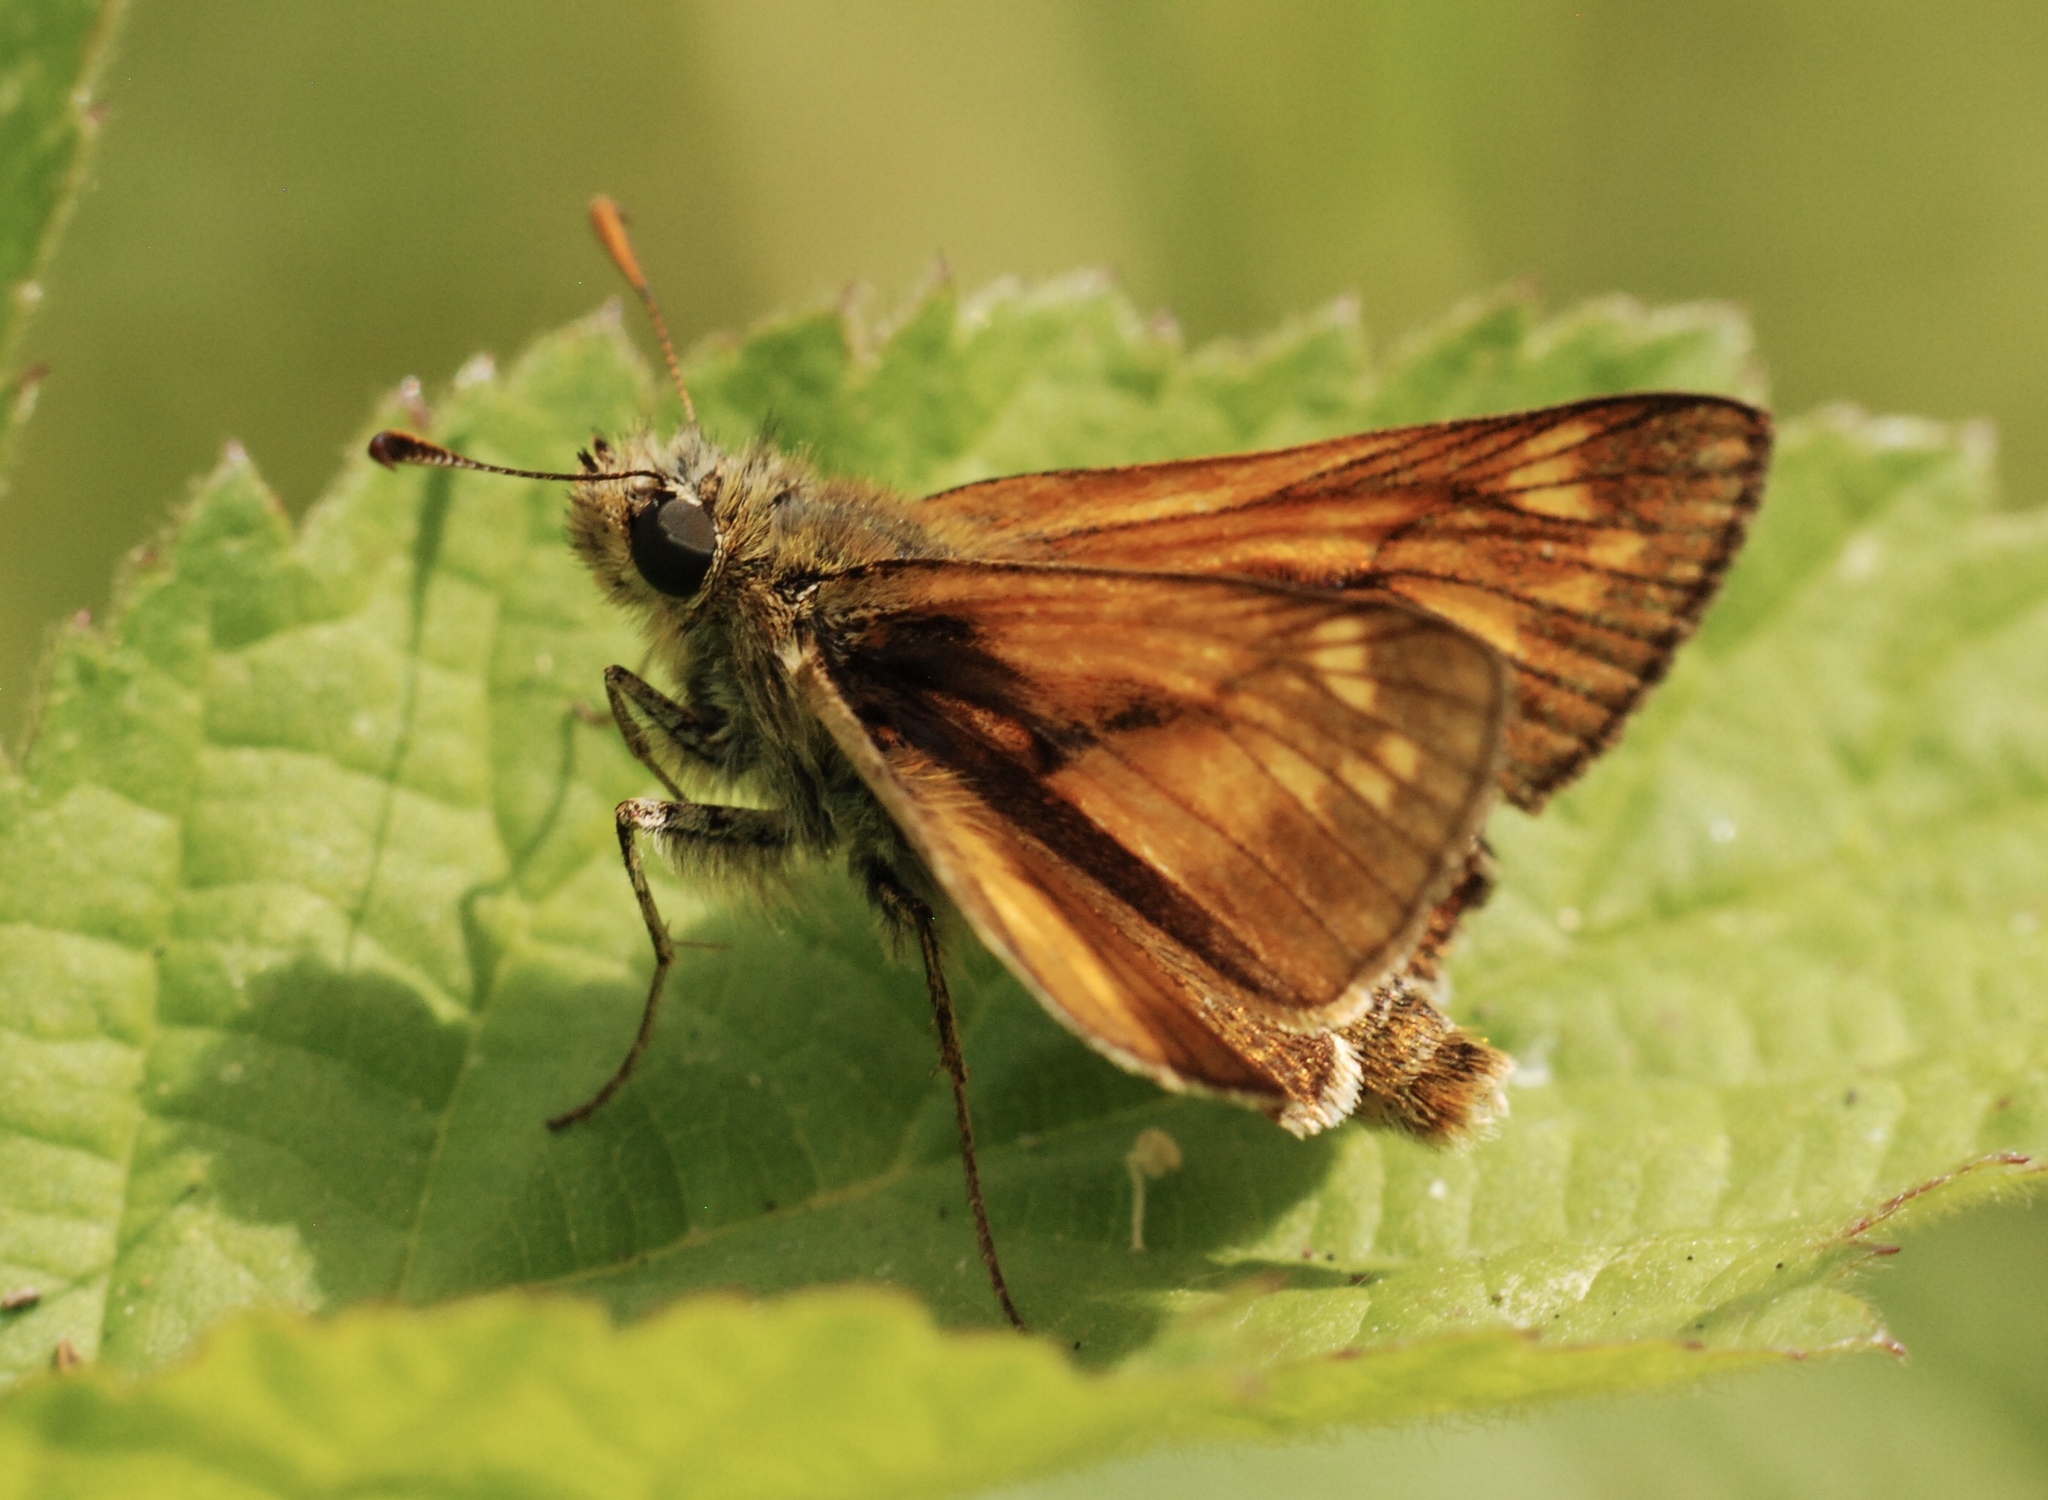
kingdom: Animalia
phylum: Arthropoda
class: Insecta
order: Lepidoptera
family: Hesperiidae
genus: Ochlodes
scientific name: Ochlodes venata
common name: Large skipper
